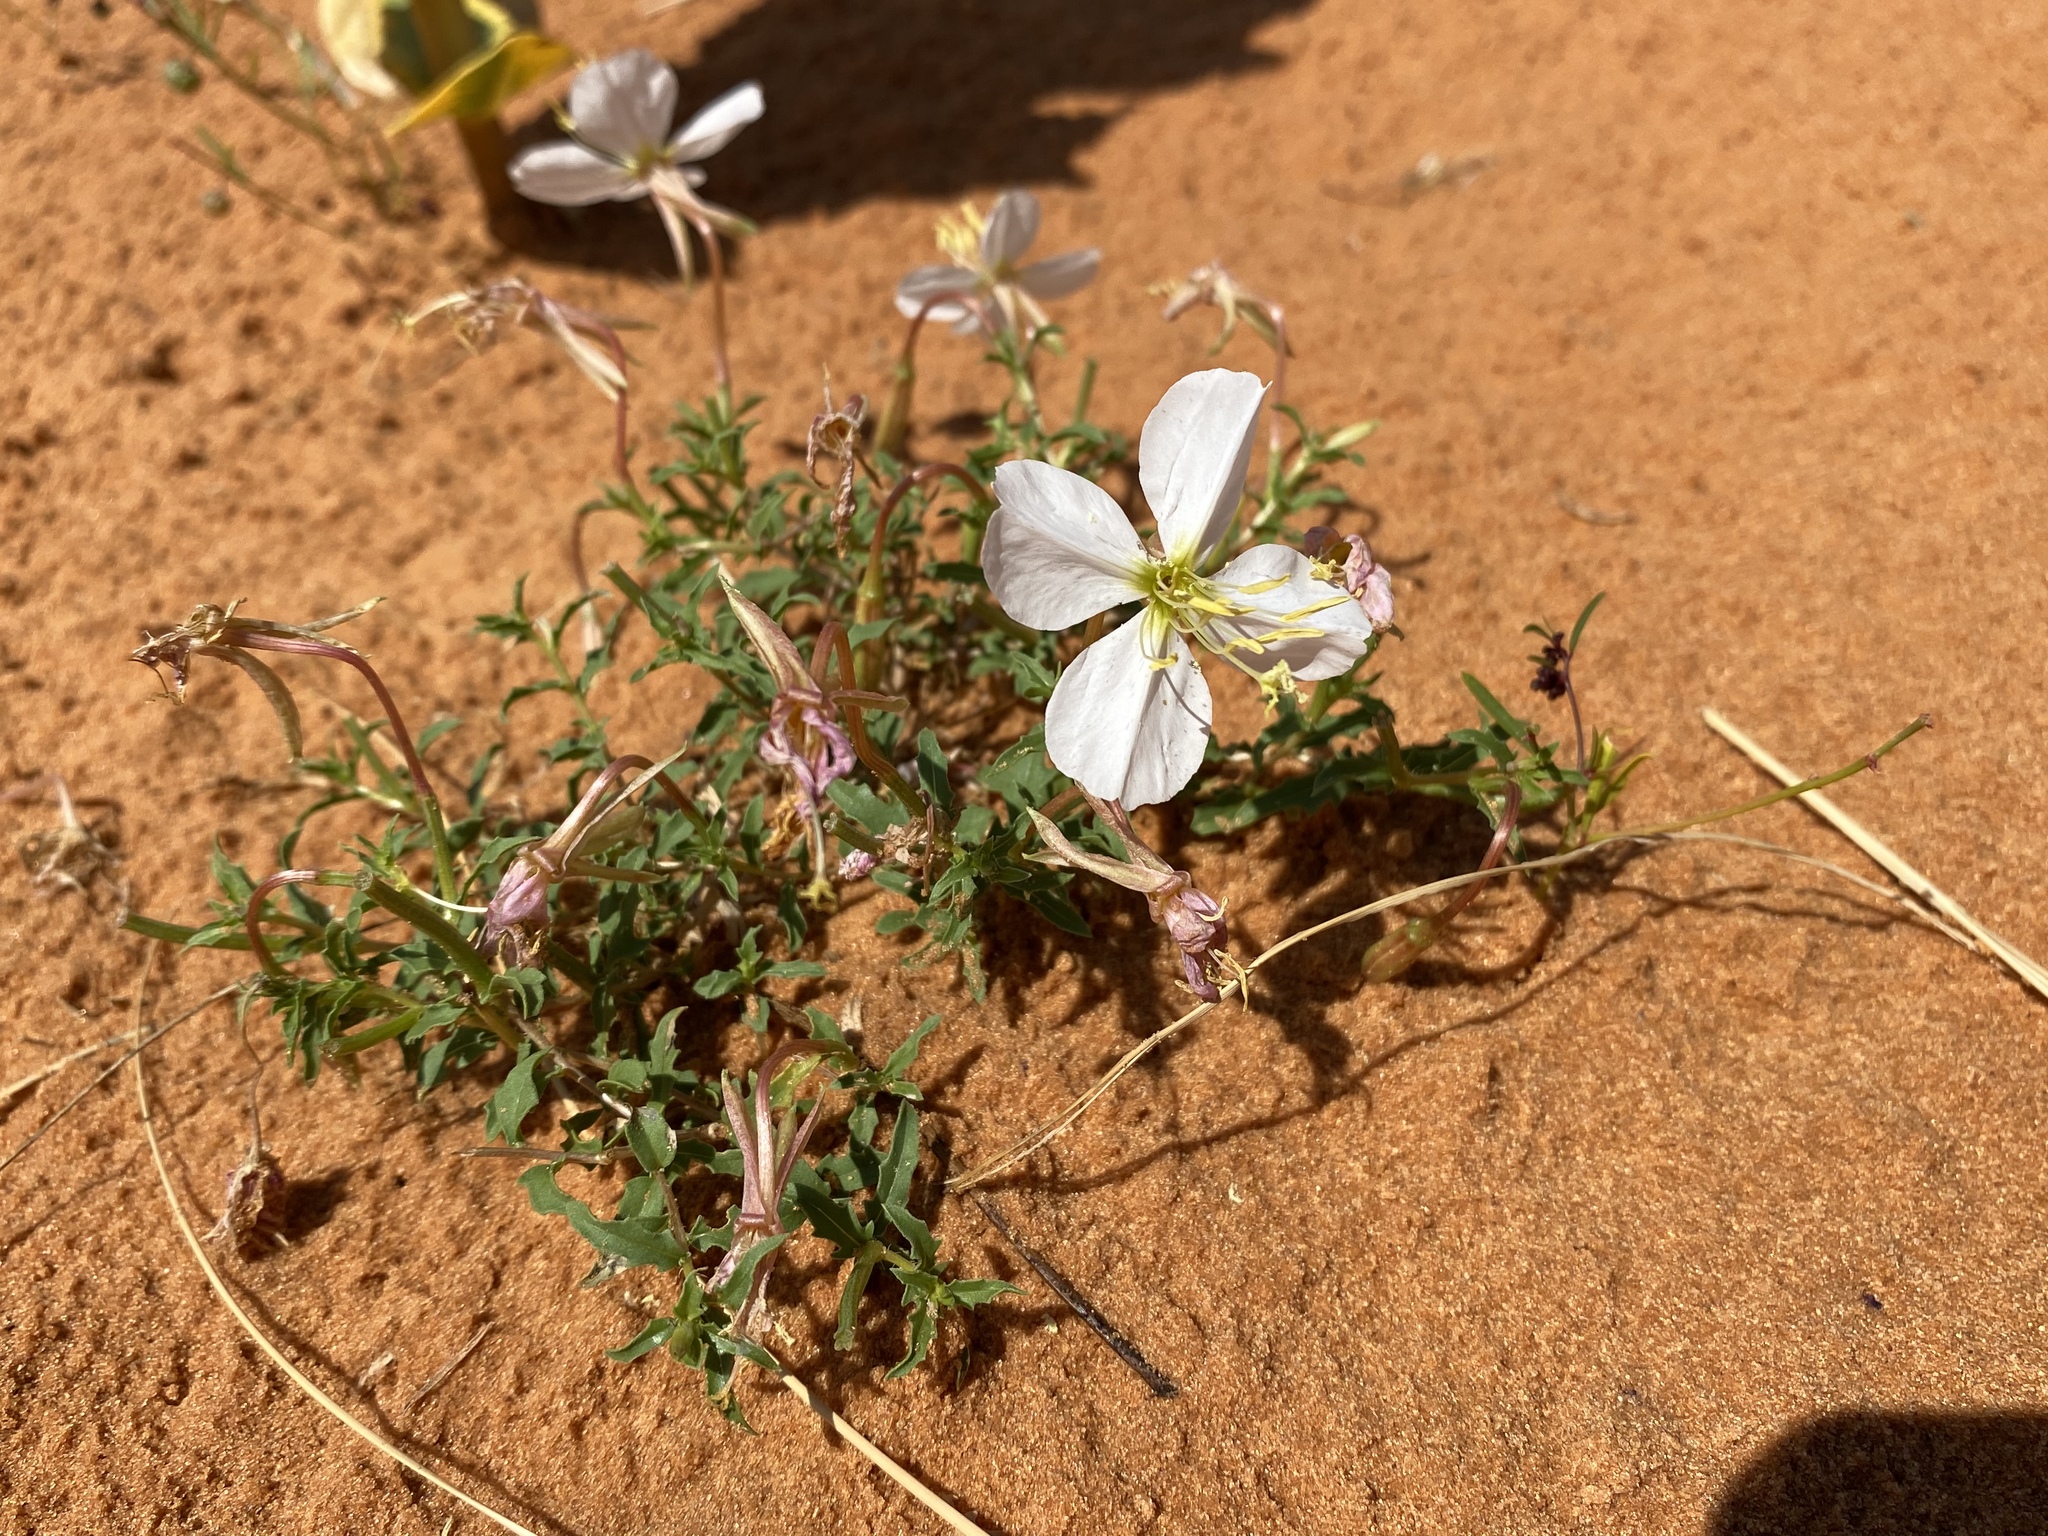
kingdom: Plantae
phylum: Tracheophyta
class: Magnoliopsida
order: Myrtales
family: Onagraceae
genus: Oenothera
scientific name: Oenothera pallida
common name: Pale evening-primrose
